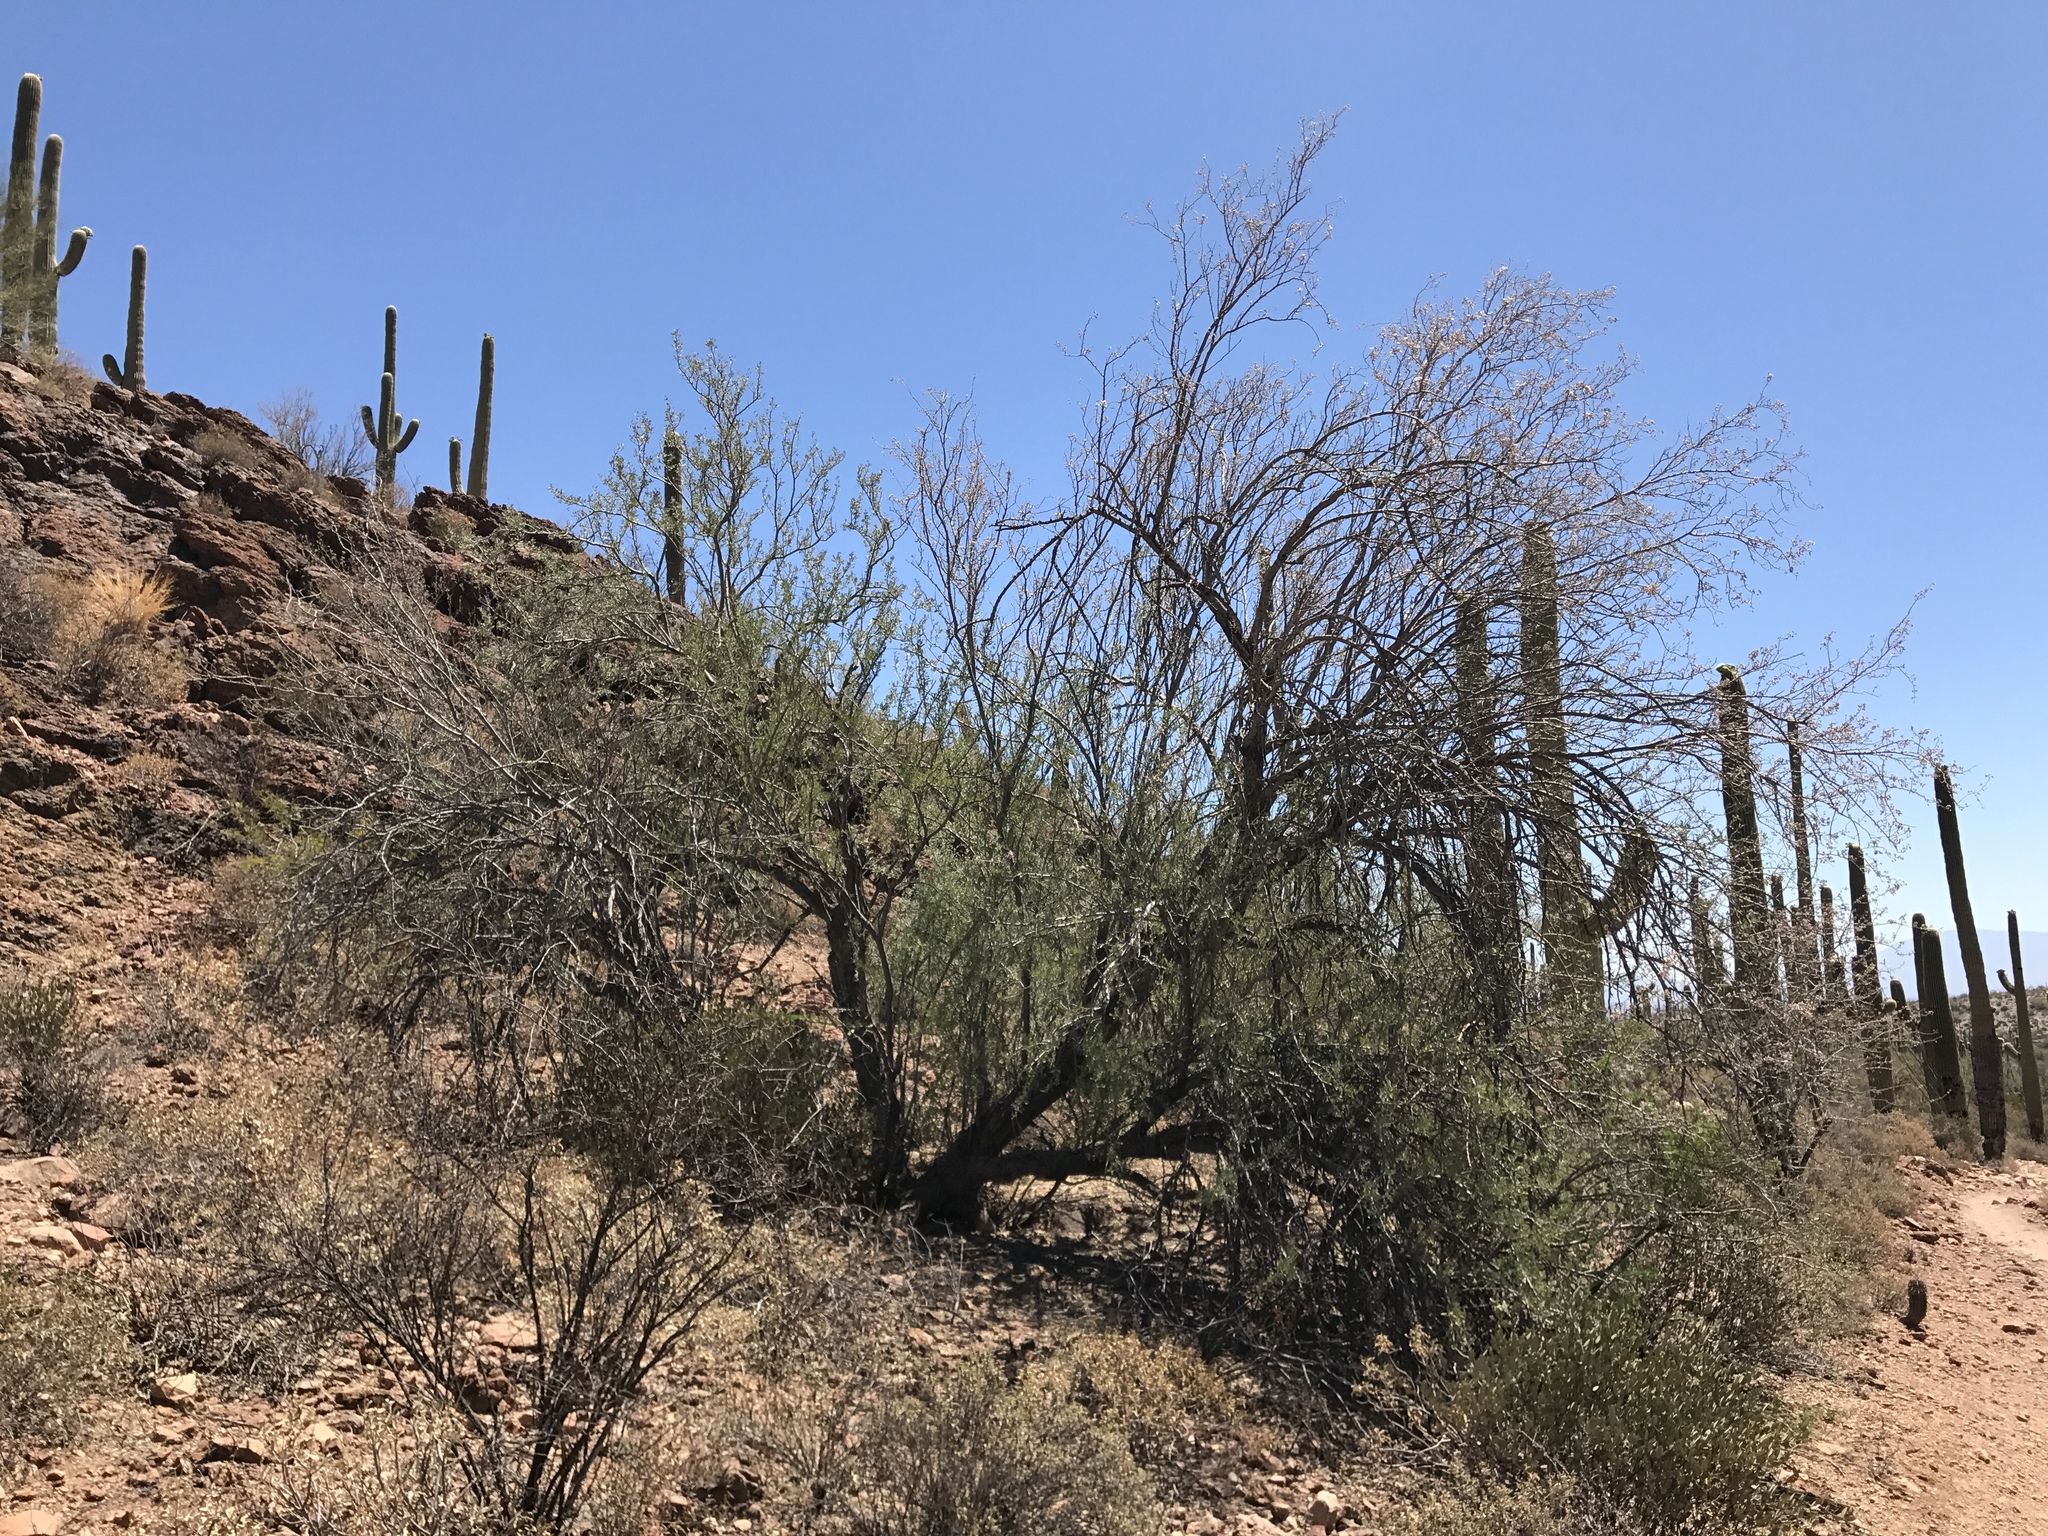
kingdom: Plantae
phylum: Tracheophyta
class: Magnoliopsida
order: Fabales
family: Fabaceae
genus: Olneya
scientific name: Olneya tesota
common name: Desert ironwood
